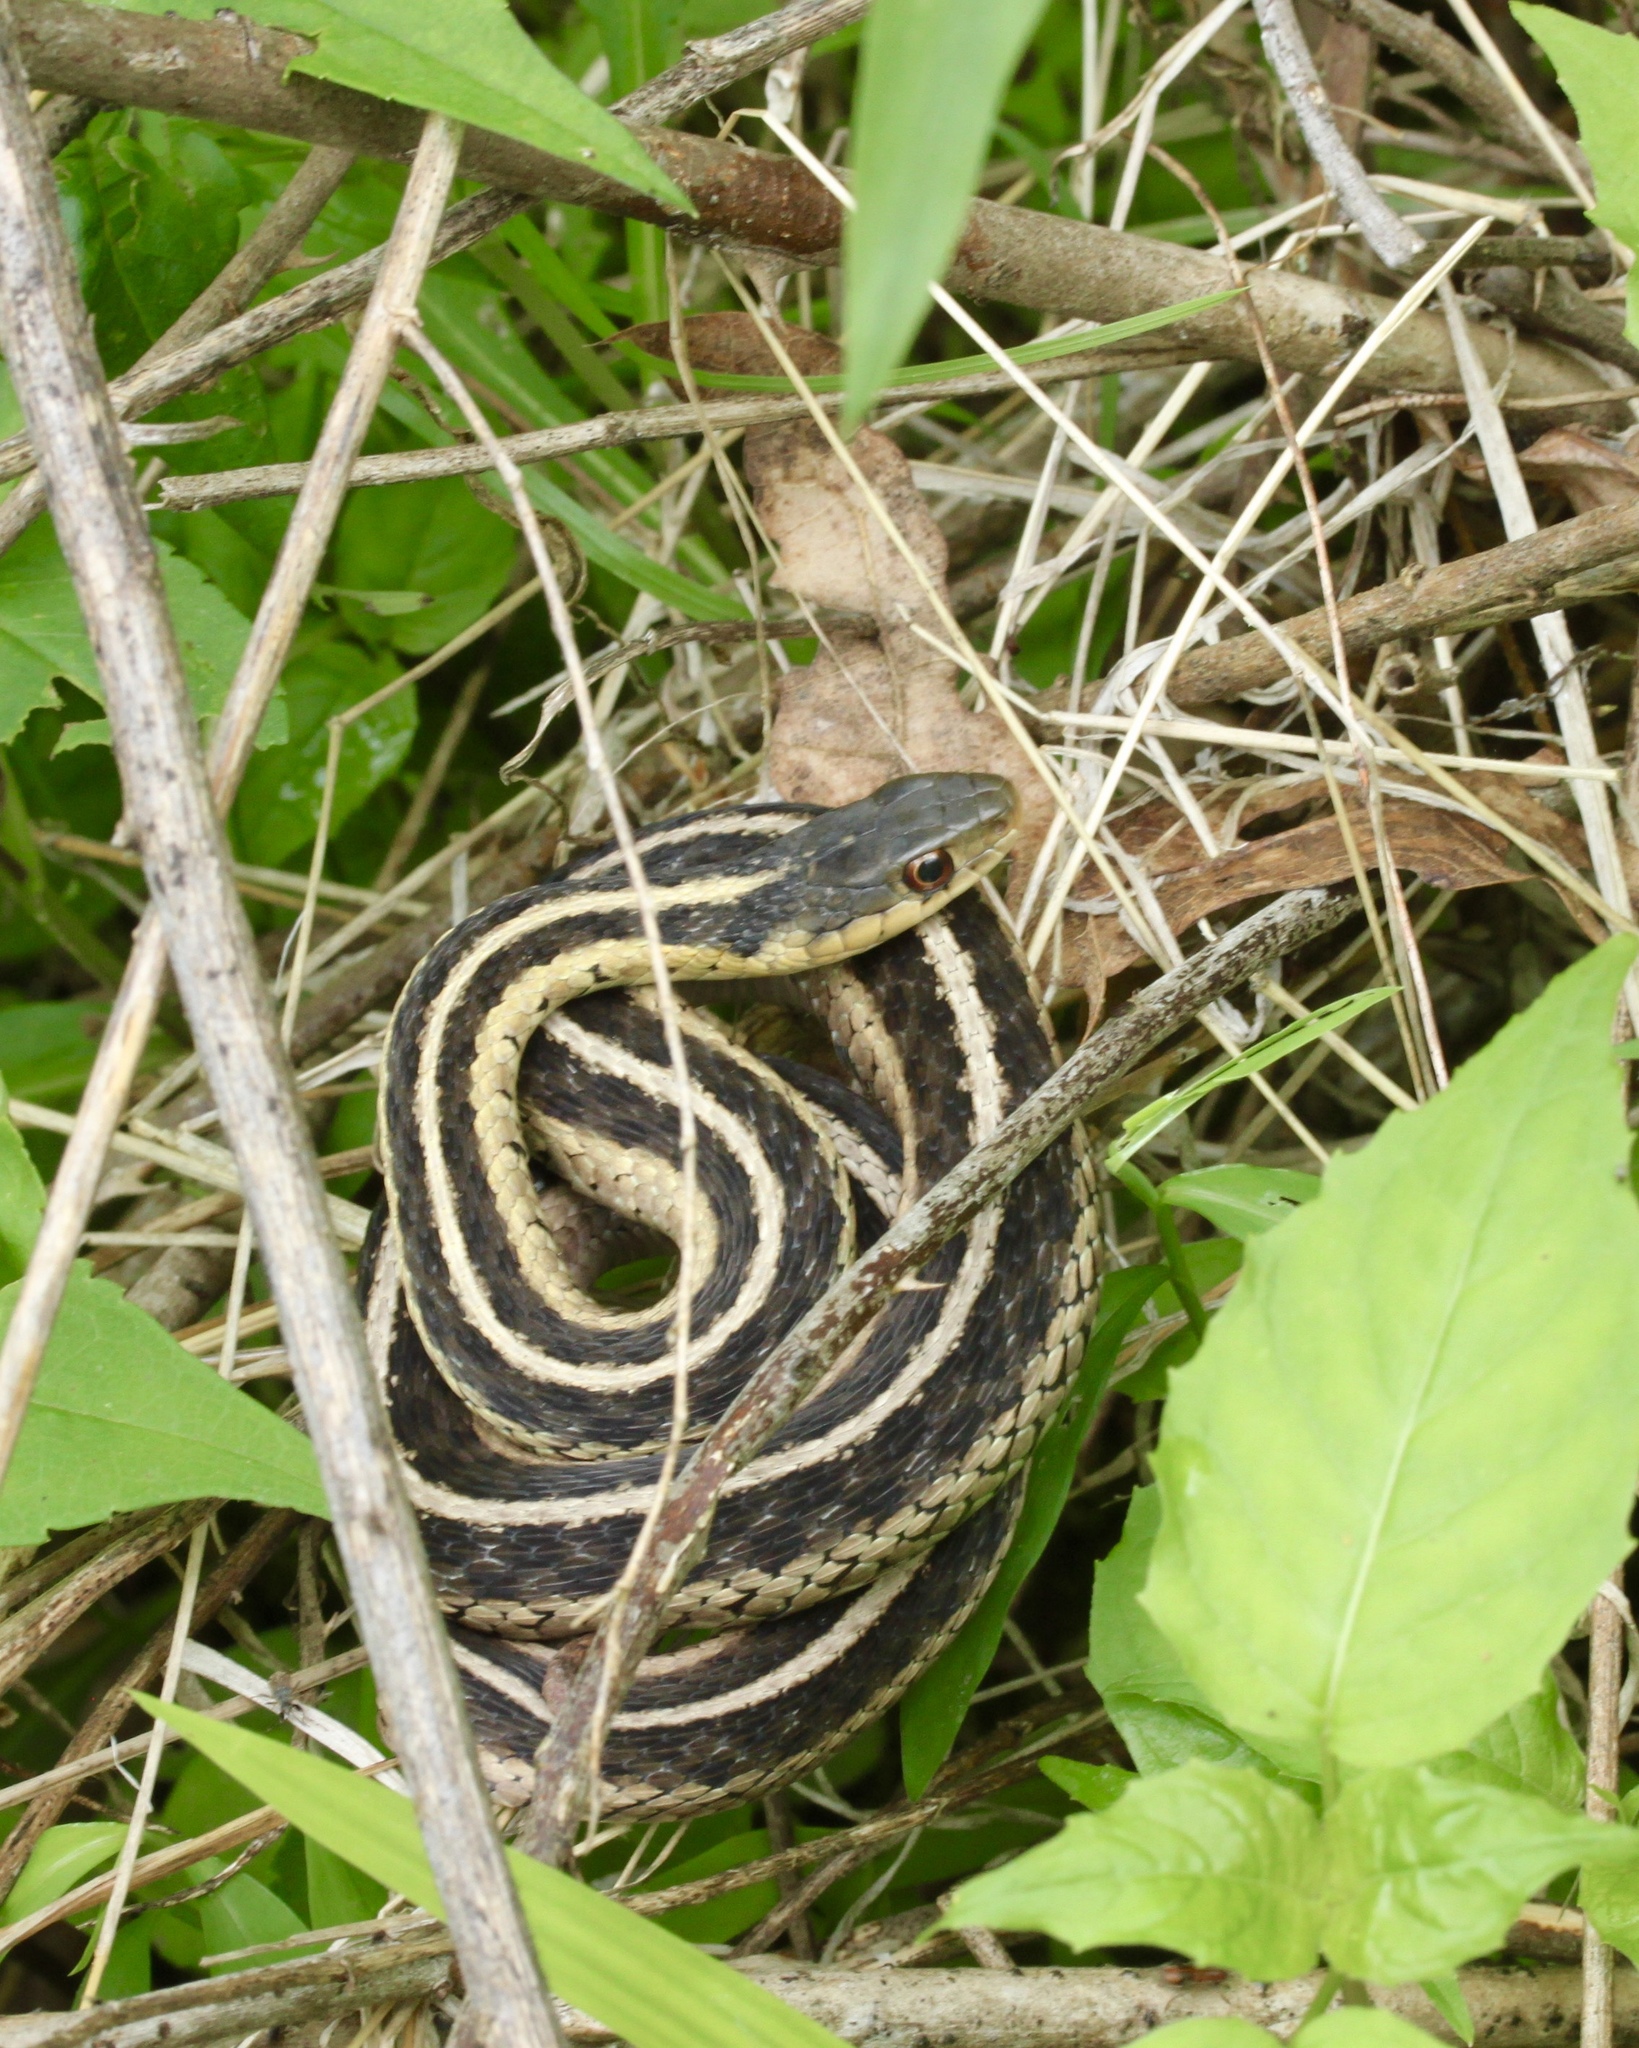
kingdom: Animalia
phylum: Chordata
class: Squamata
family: Colubridae
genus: Thamnophis
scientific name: Thamnophis sirtalis
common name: Common garter snake
